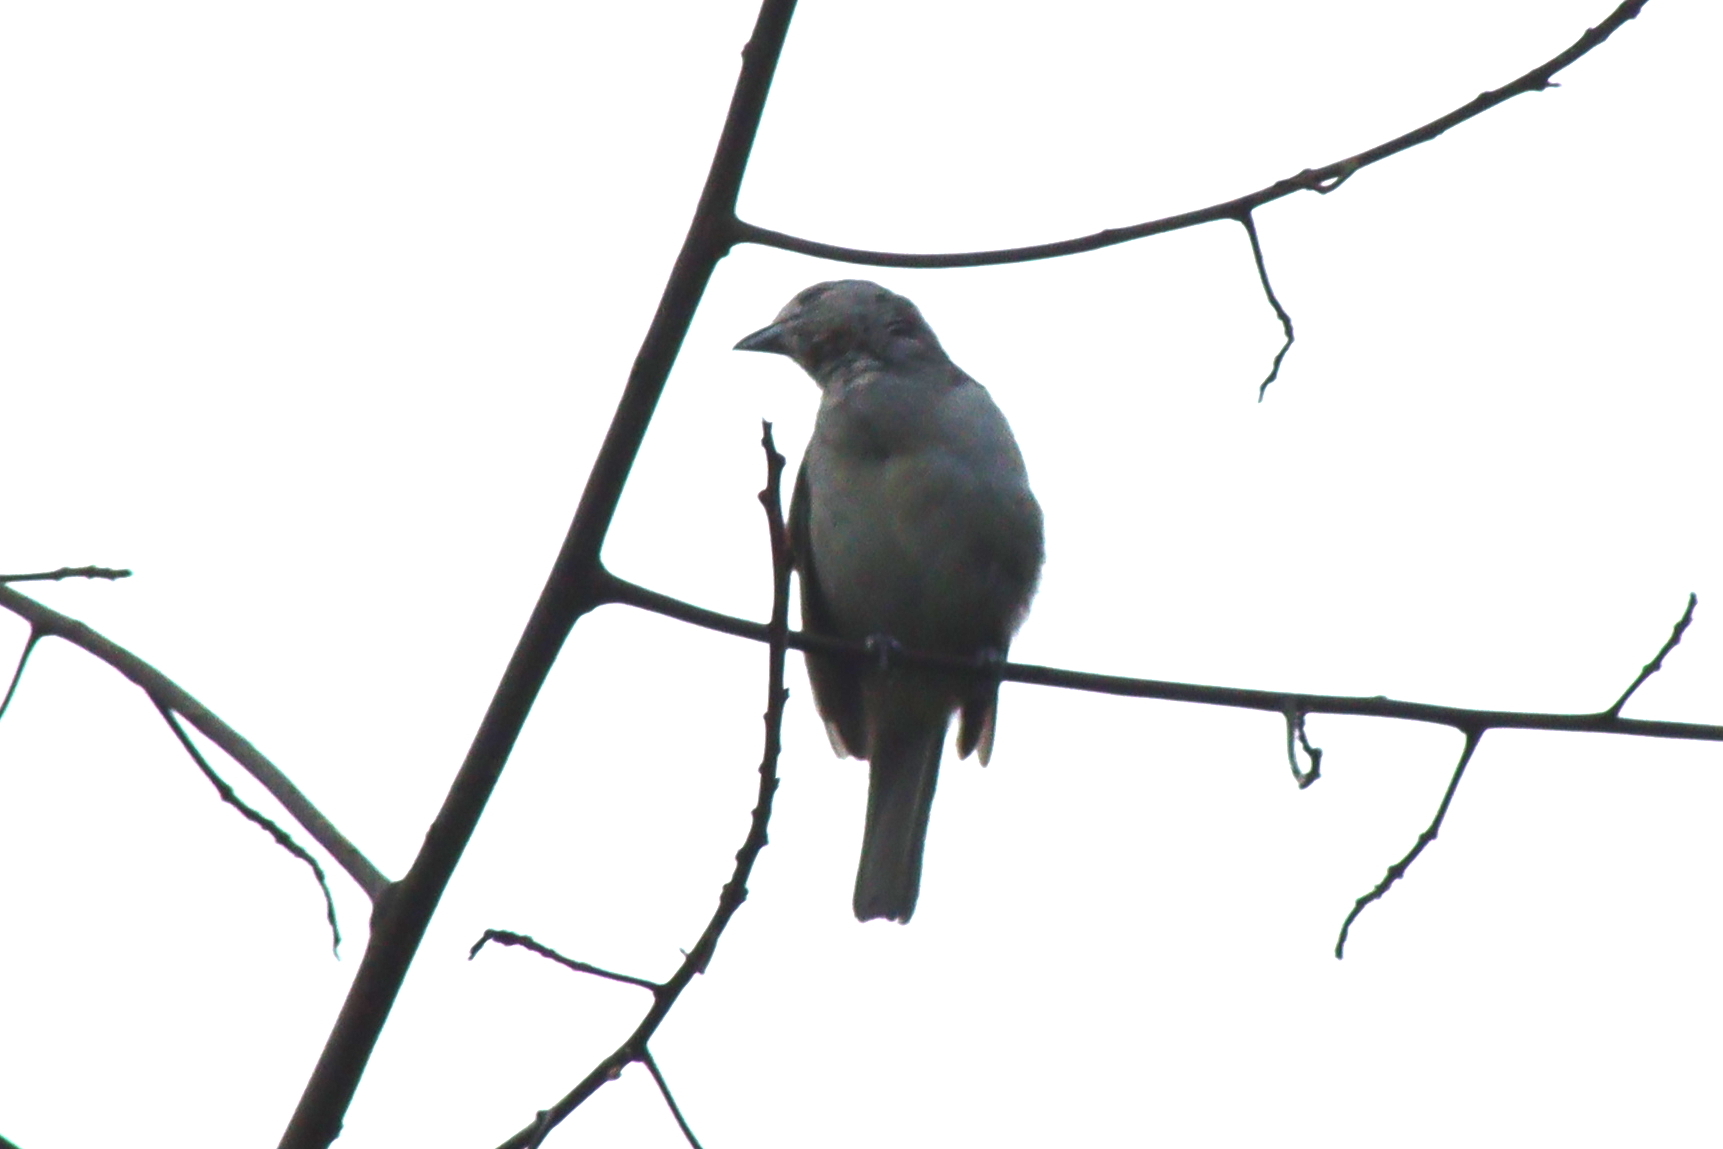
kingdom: Animalia
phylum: Chordata
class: Aves
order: Passeriformes
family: Thraupidae
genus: Thraupis
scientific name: Thraupis sayaca
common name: Sayaca tanager
